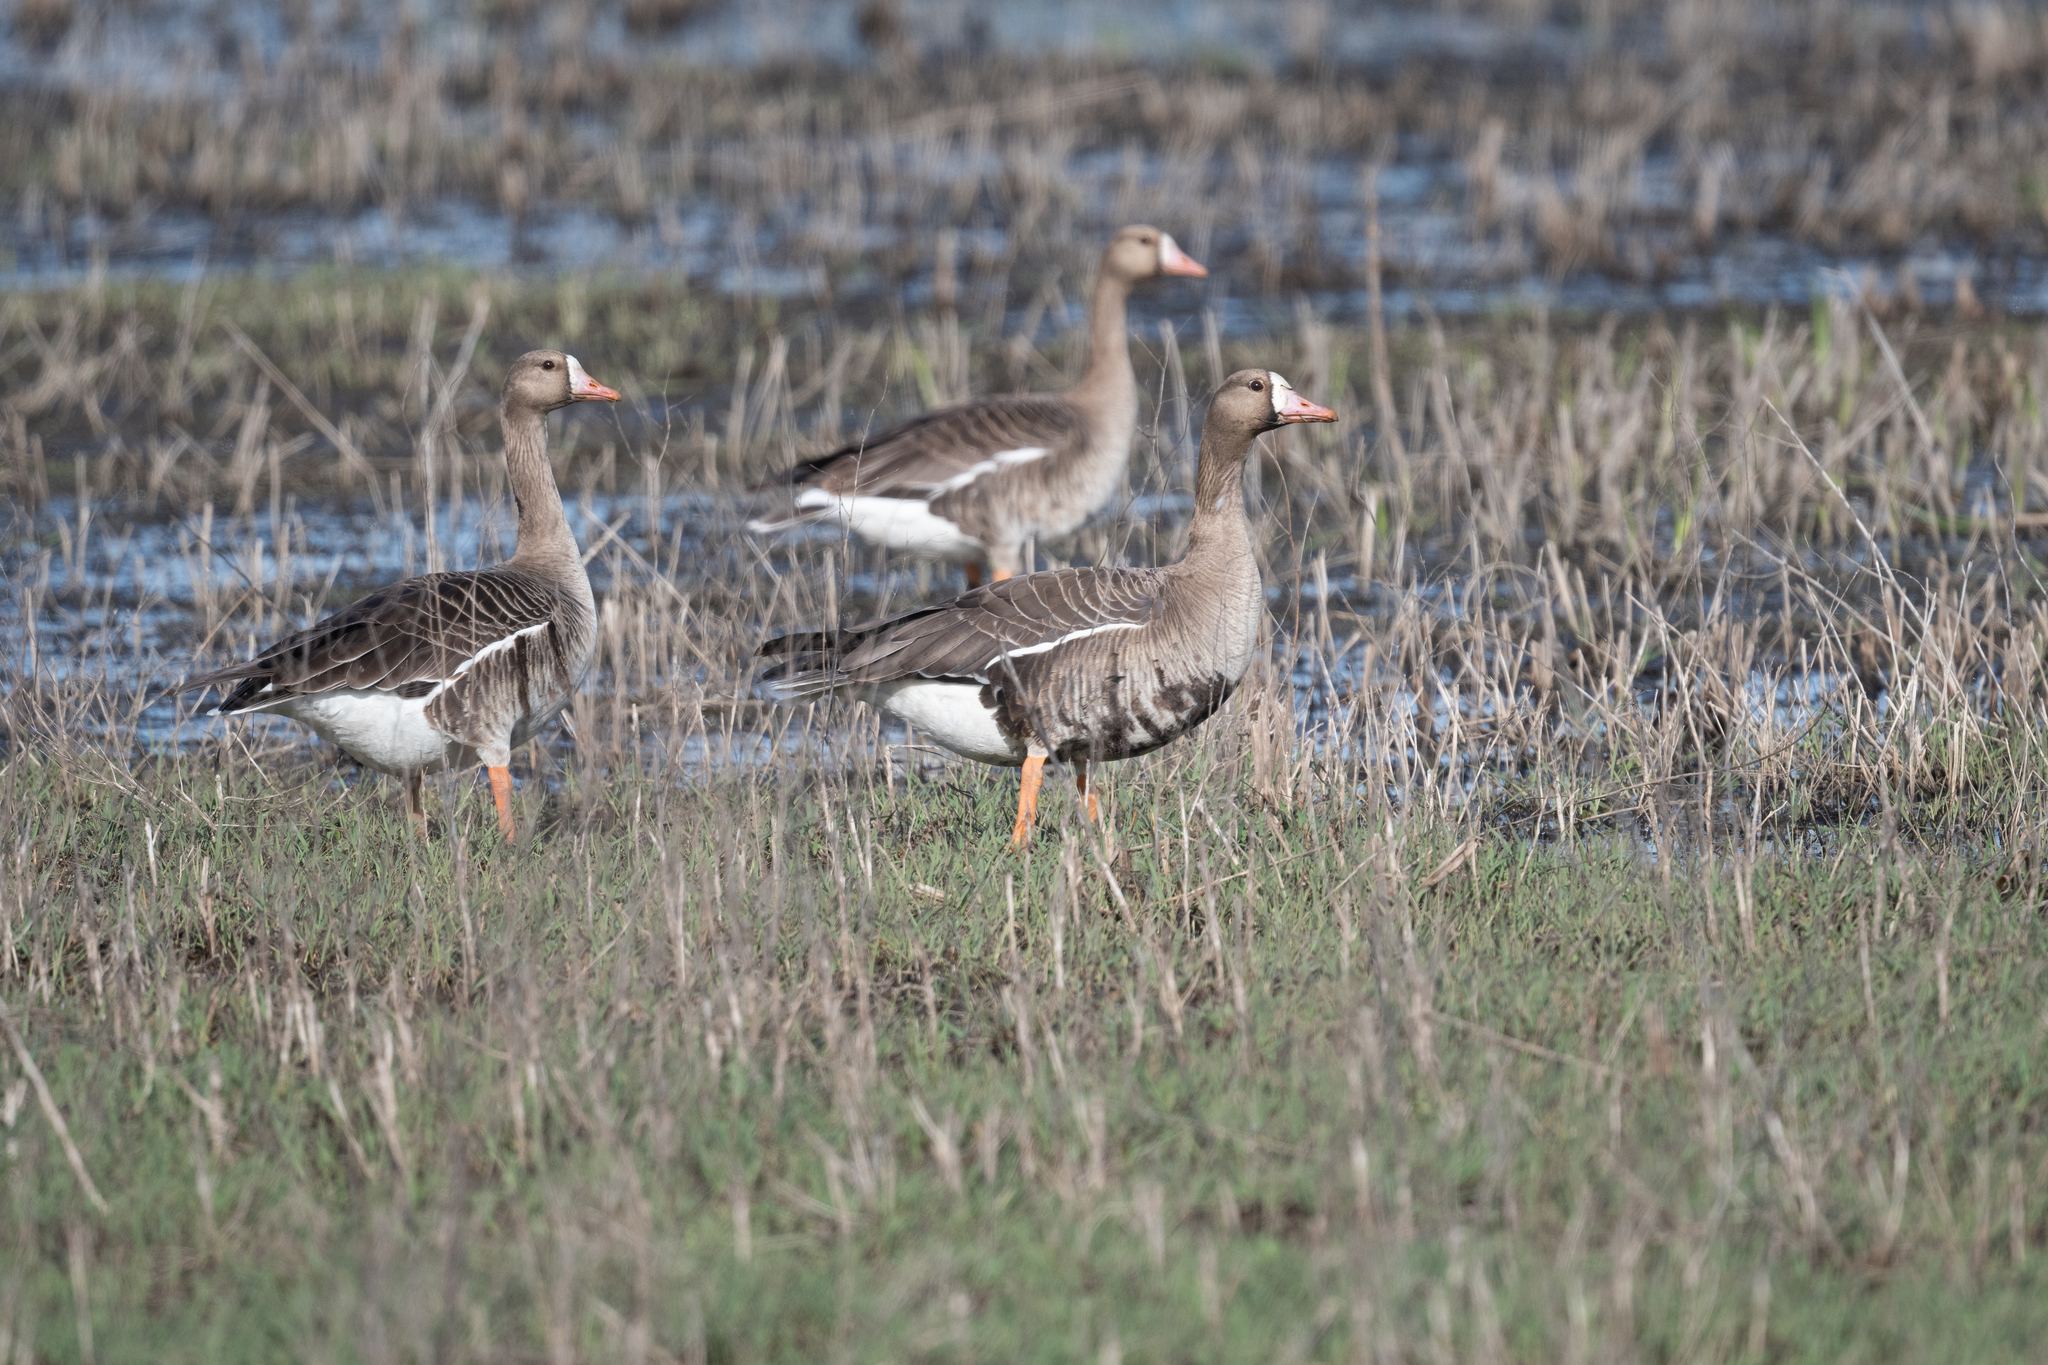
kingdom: Animalia
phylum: Chordata
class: Aves
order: Anseriformes
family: Anatidae
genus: Anser
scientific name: Anser albifrons
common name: Greater white-fronted goose
